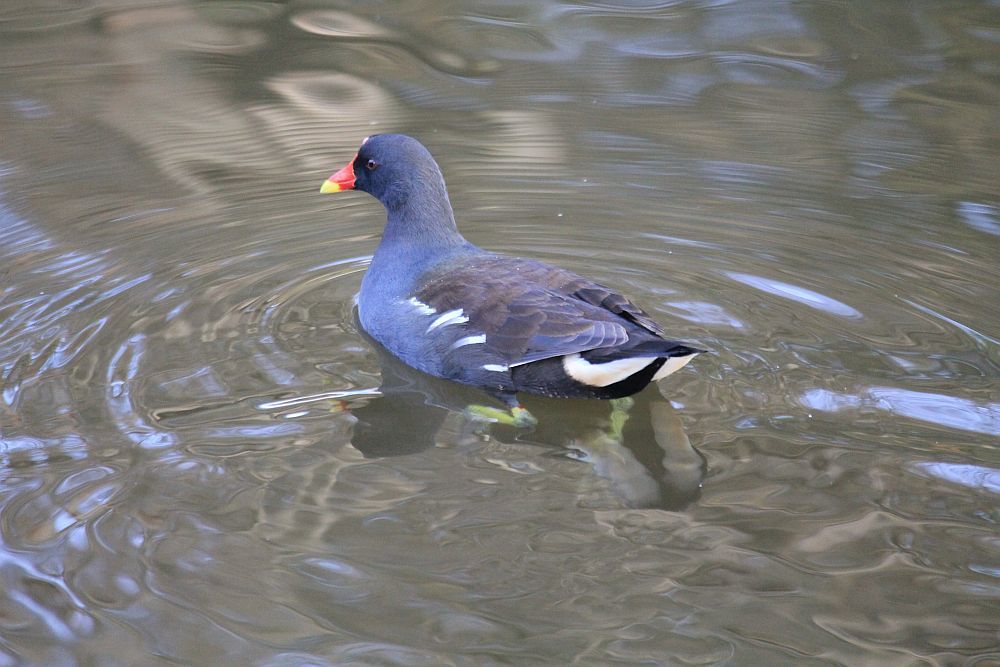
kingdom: Animalia
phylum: Chordata
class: Aves
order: Gruiformes
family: Rallidae
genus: Gallinula
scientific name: Gallinula chloropus
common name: Common moorhen
